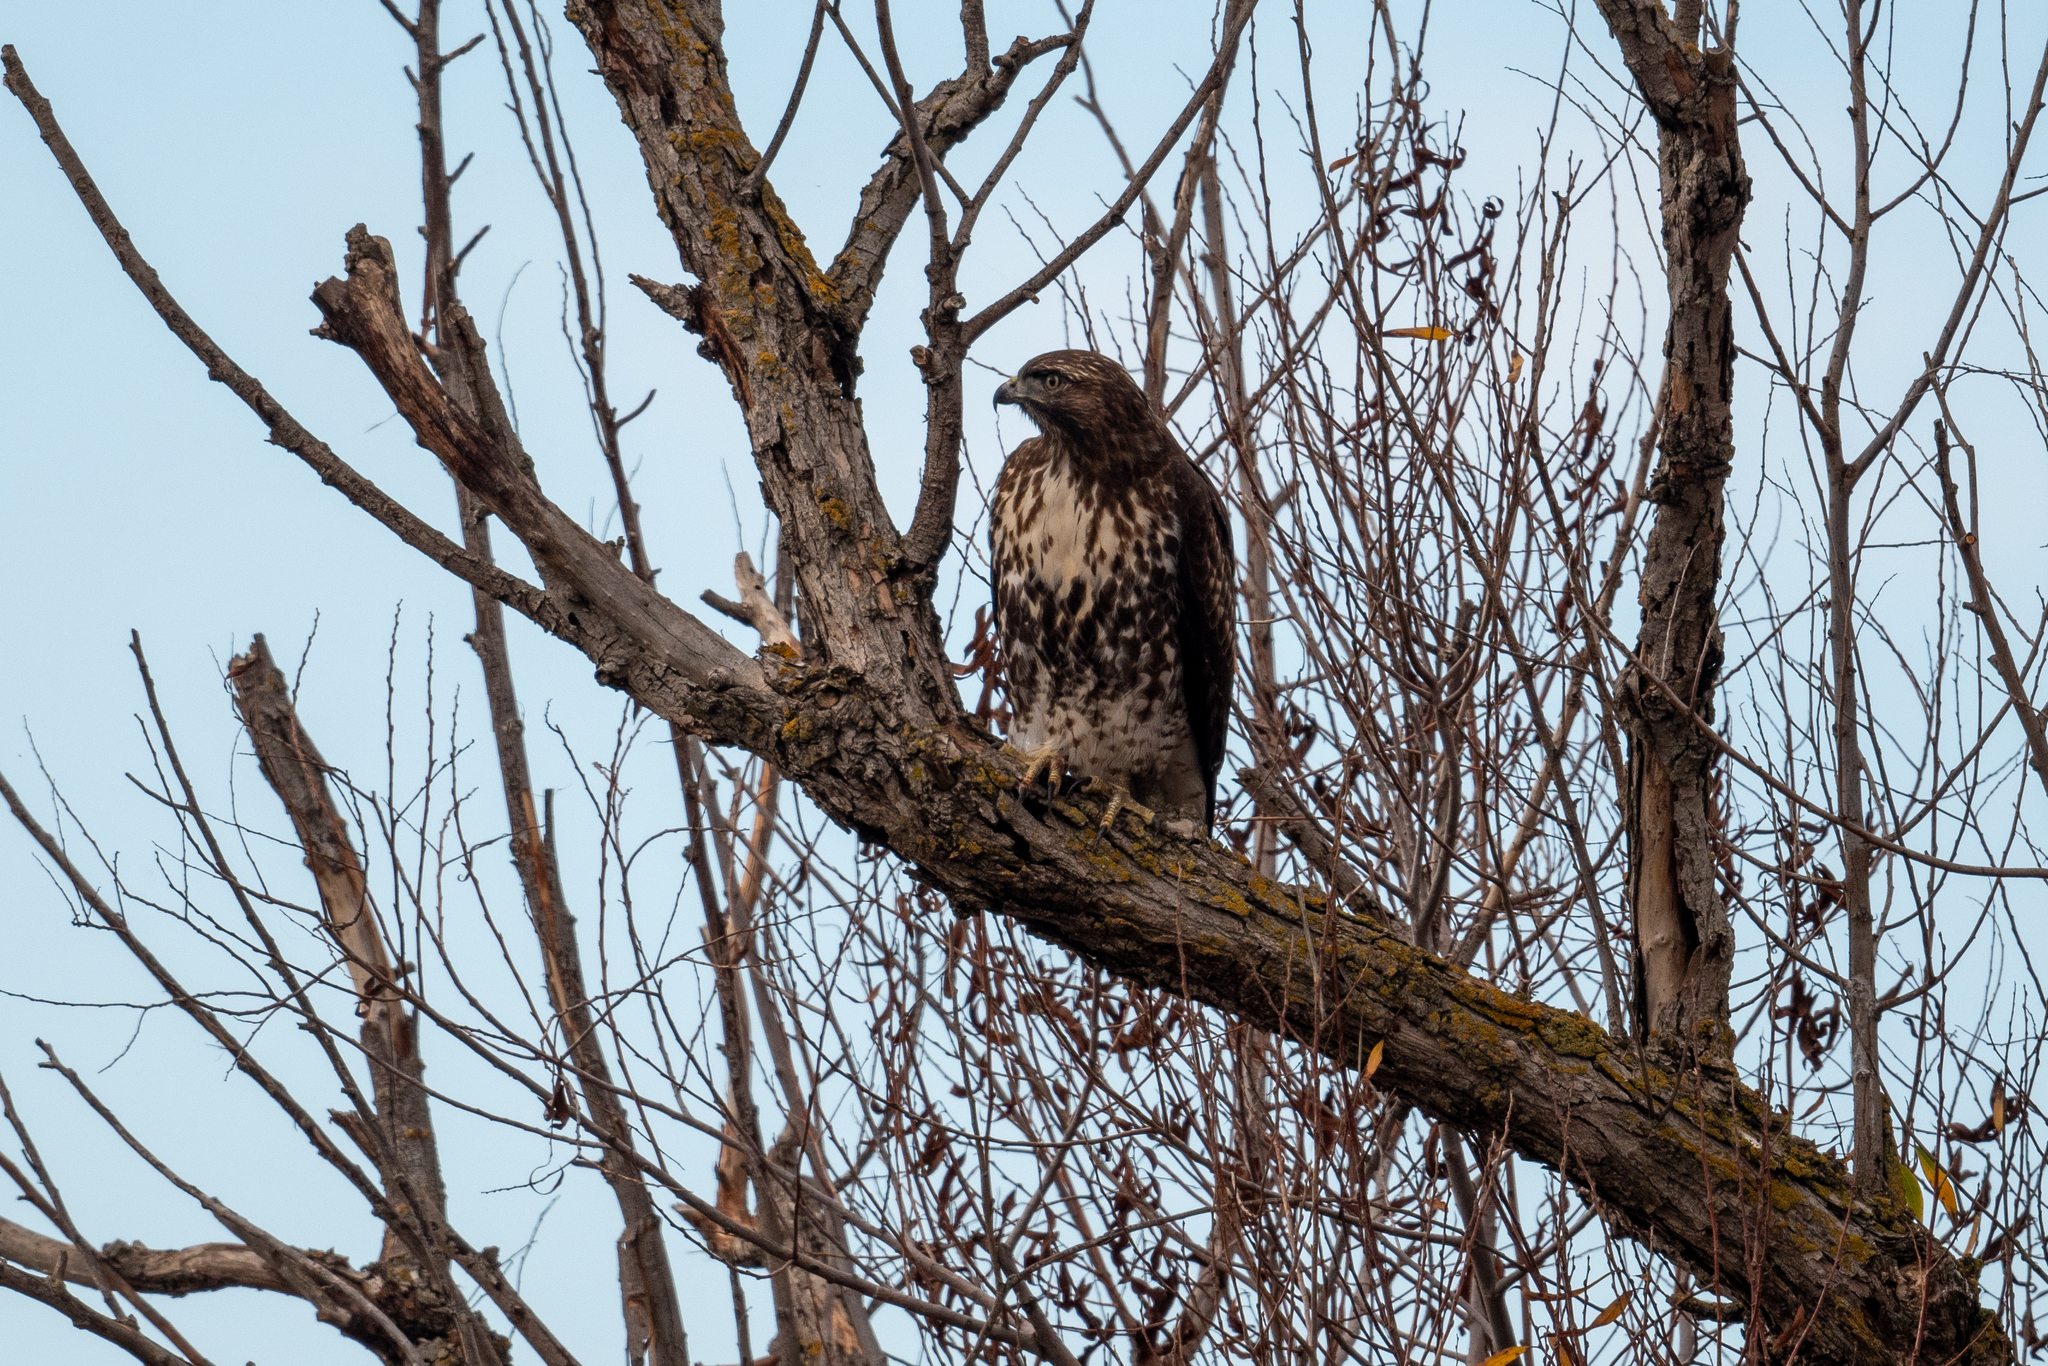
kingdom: Animalia
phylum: Chordata
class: Aves
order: Accipitriformes
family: Accipitridae
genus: Buteo
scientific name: Buteo jamaicensis
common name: Red-tailed hawk
